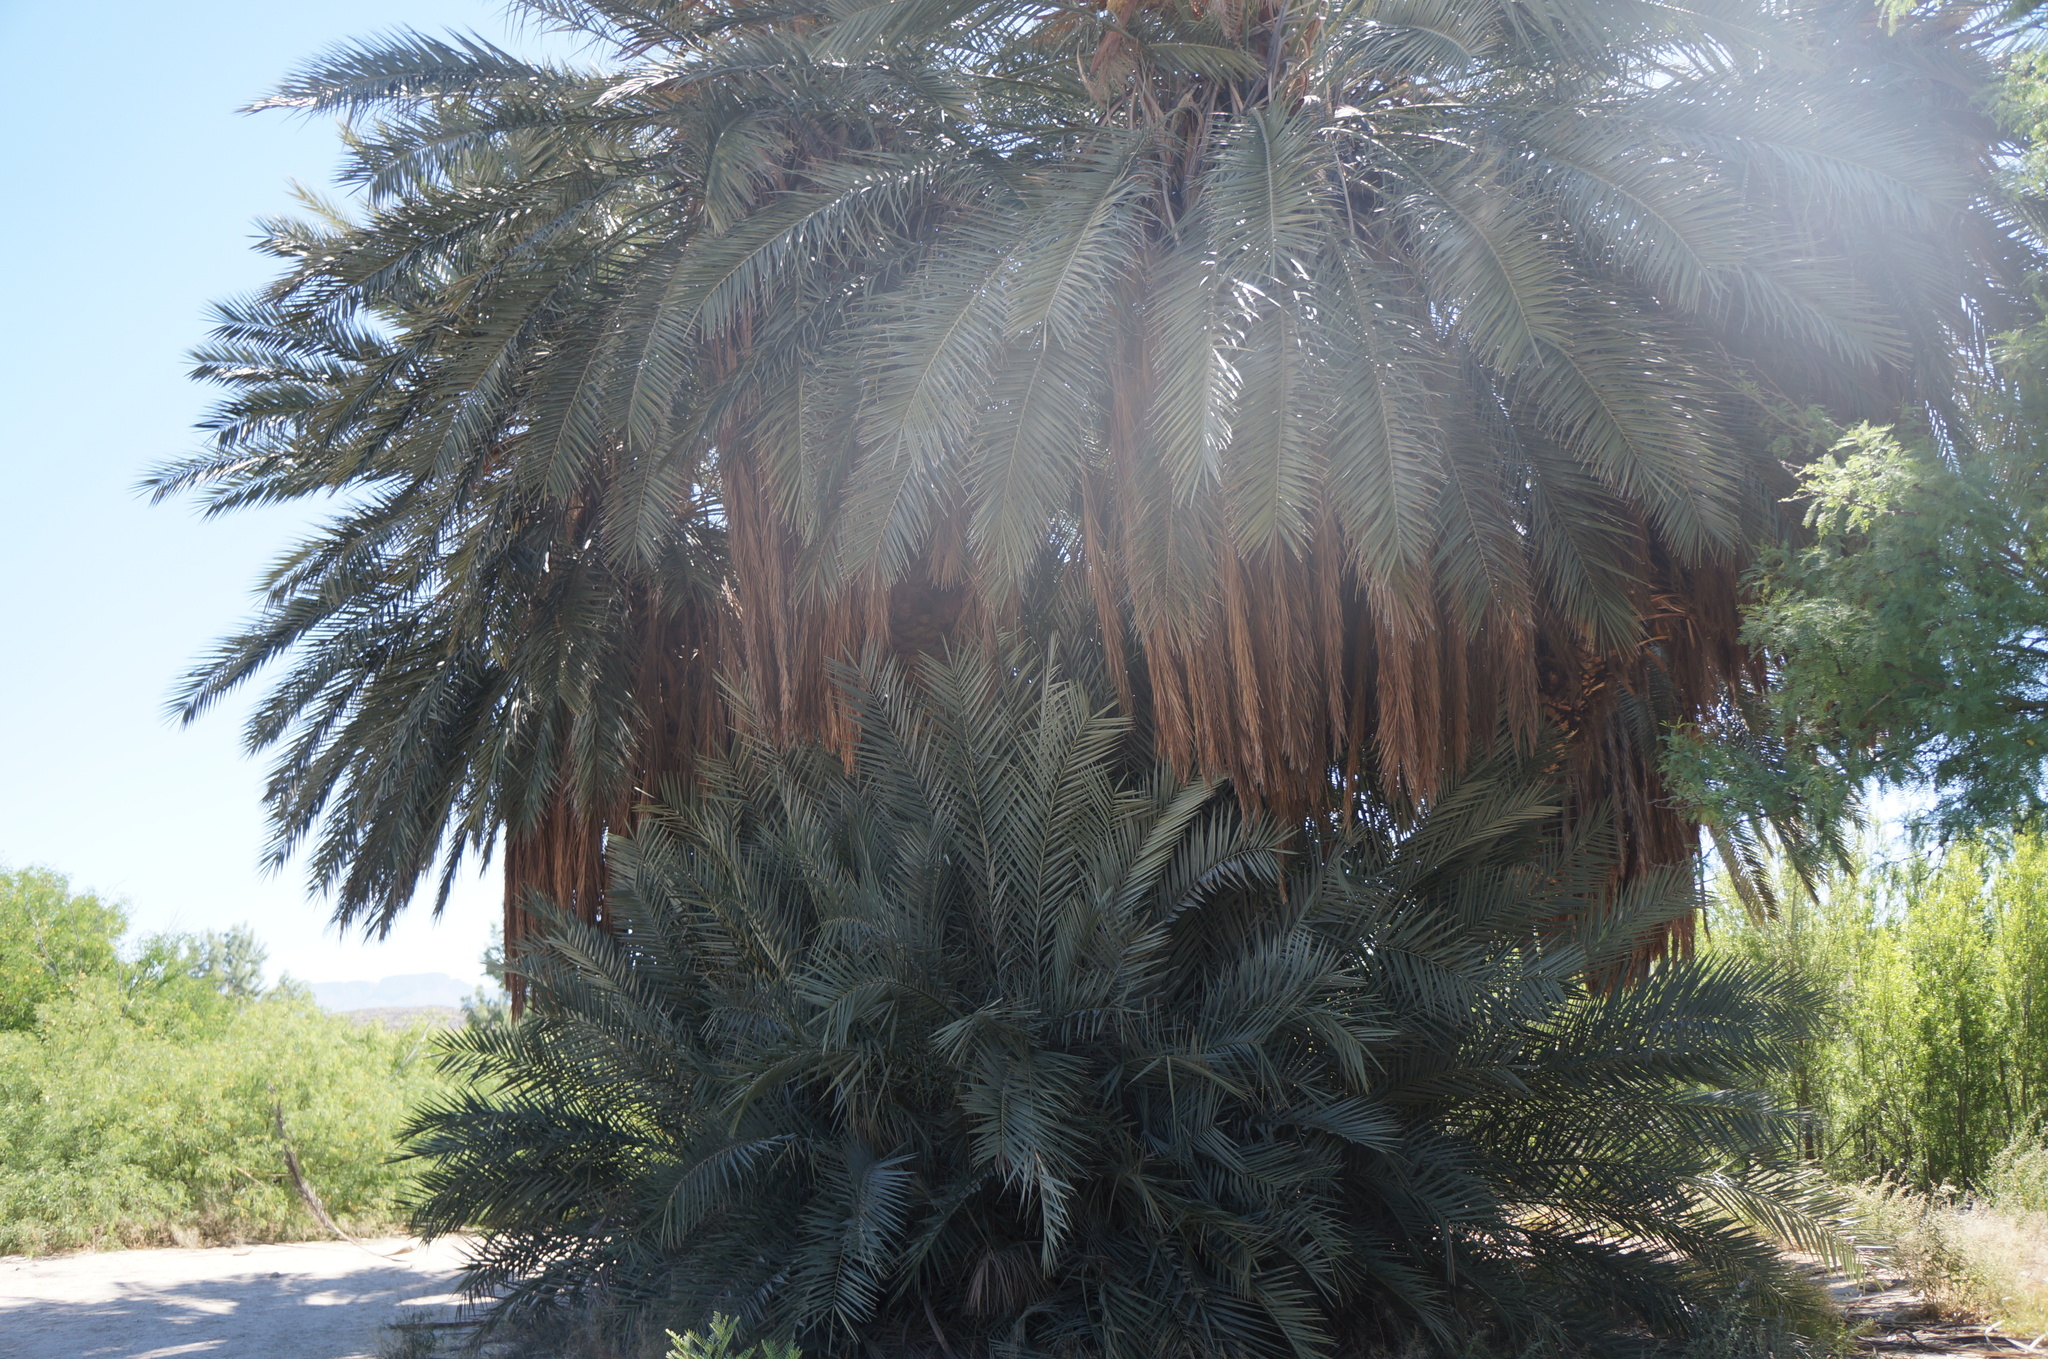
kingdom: Plantae
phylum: Tracheophyta
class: Liliopsida
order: Arecales
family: Arecaceae
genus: Phoenix
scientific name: Phoenix dactylifera
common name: Date palm
